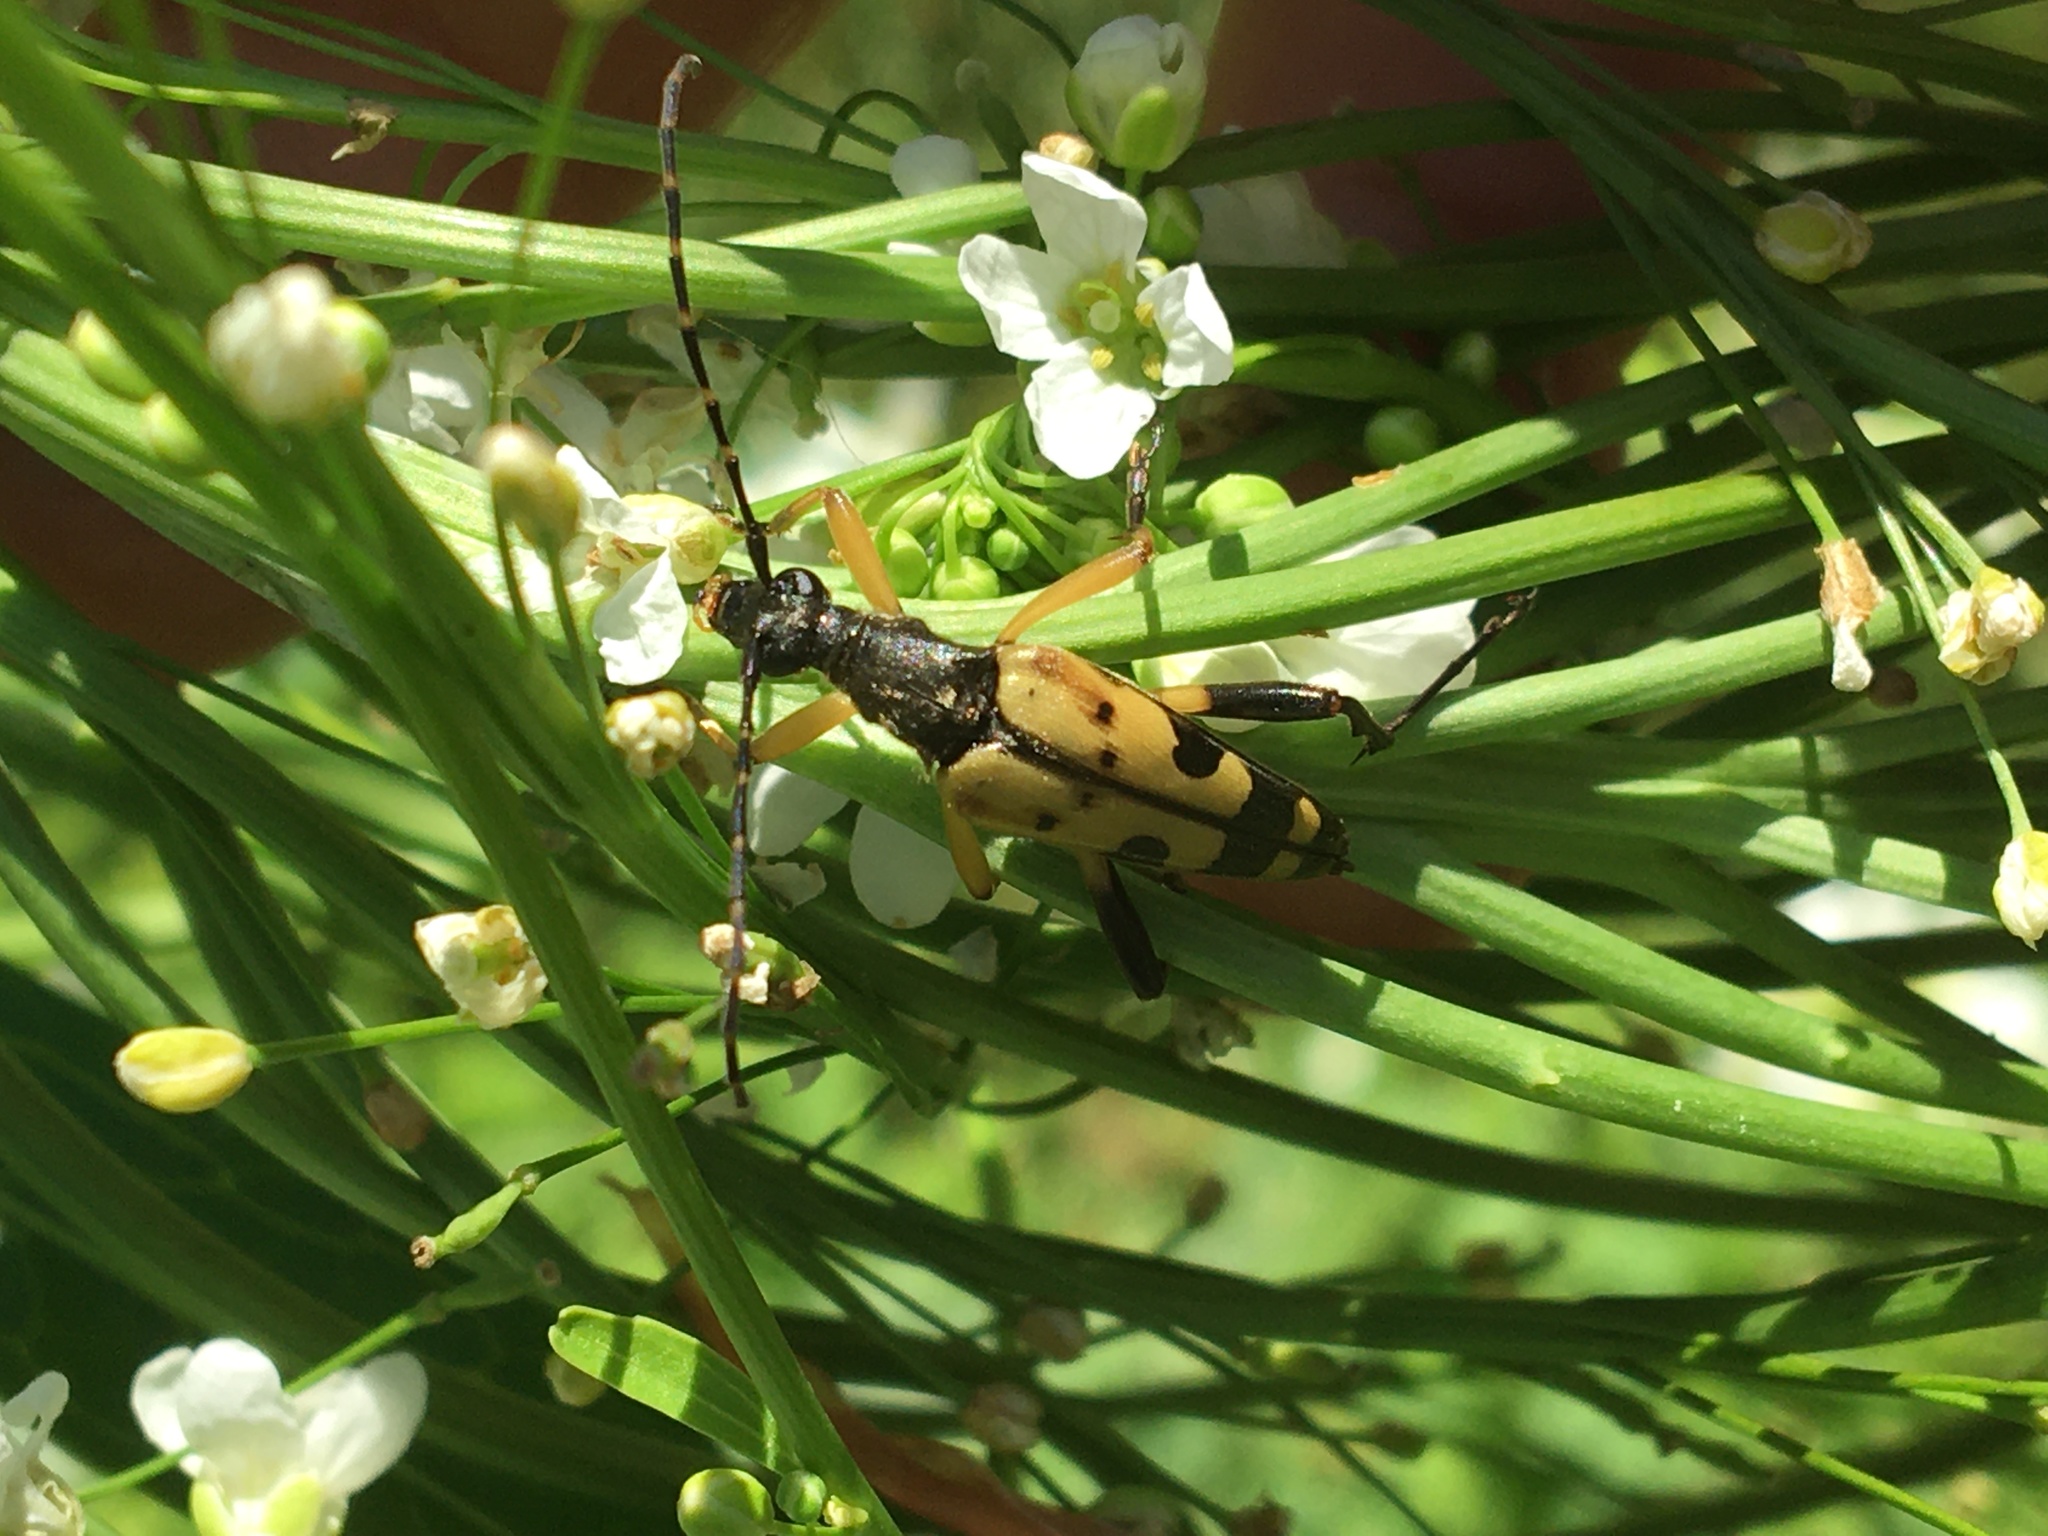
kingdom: Animalia
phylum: Arthropoda
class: Insecta
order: Coleoptera
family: Cerambycidae
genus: Rutpela
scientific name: Rutpela maculata
